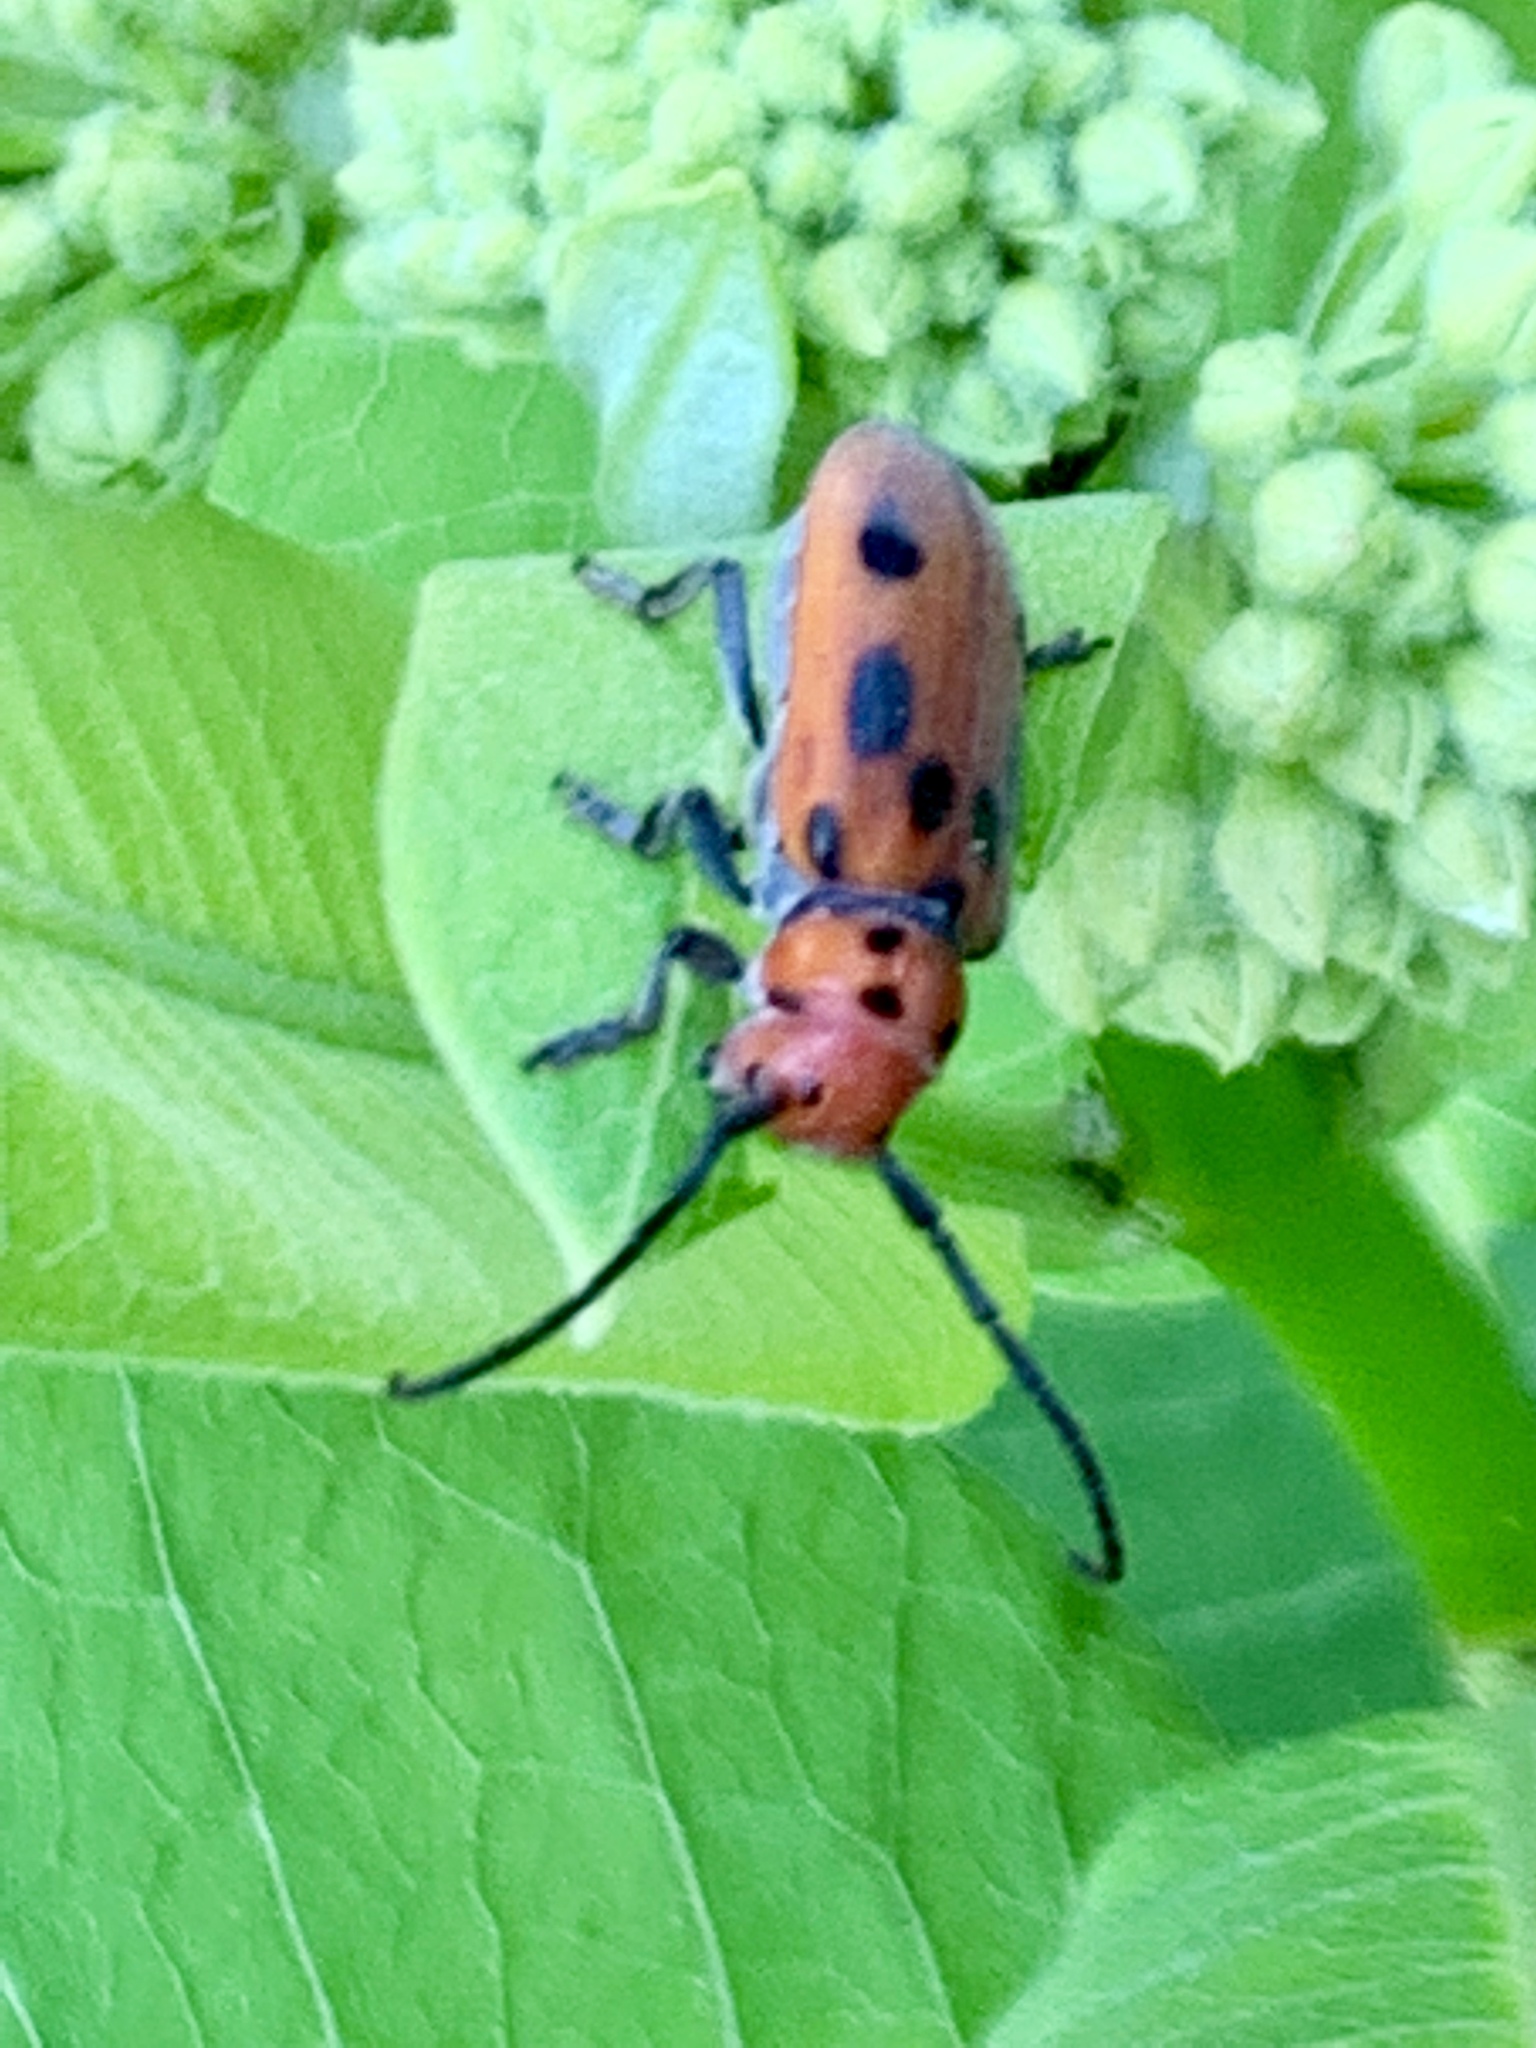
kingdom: Animalia
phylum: Arthropoda
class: Insecta
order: Coleoptera
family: Cerambycidae
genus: Tetraopes
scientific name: Tetraopes tetrophthalmus
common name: Red milkweed beetle
